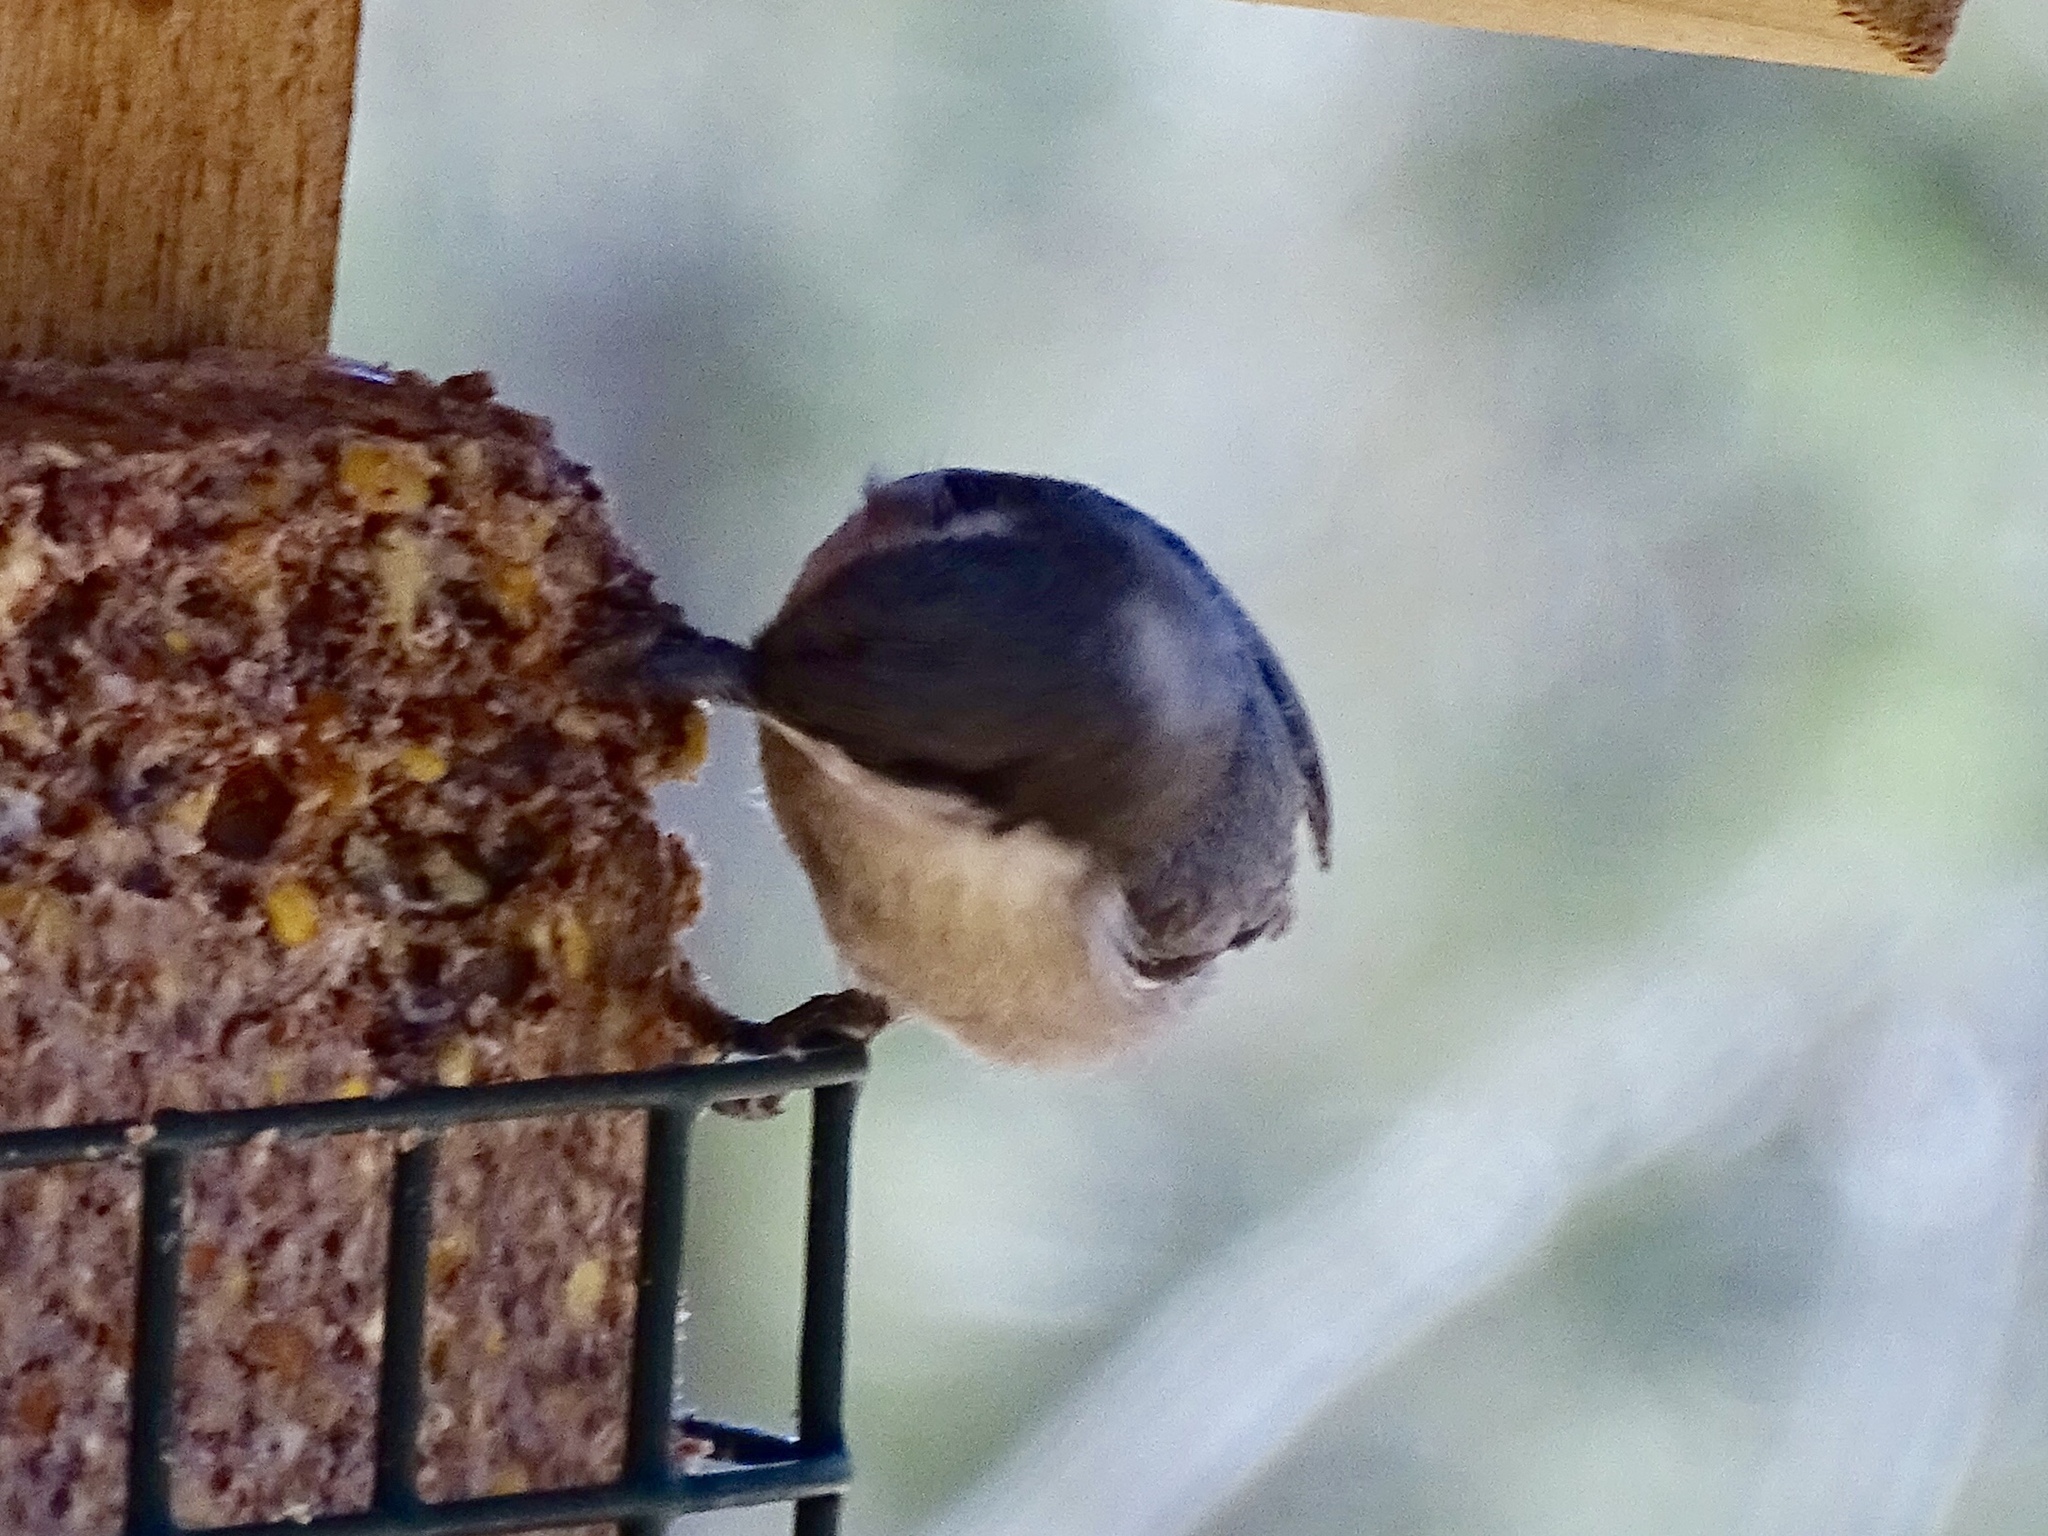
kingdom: Animalia
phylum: Chordata
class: Aves
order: Passeriformes
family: Sittidae
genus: Sitta
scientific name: Sitta pygmaea
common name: Pygmy nuthatch
